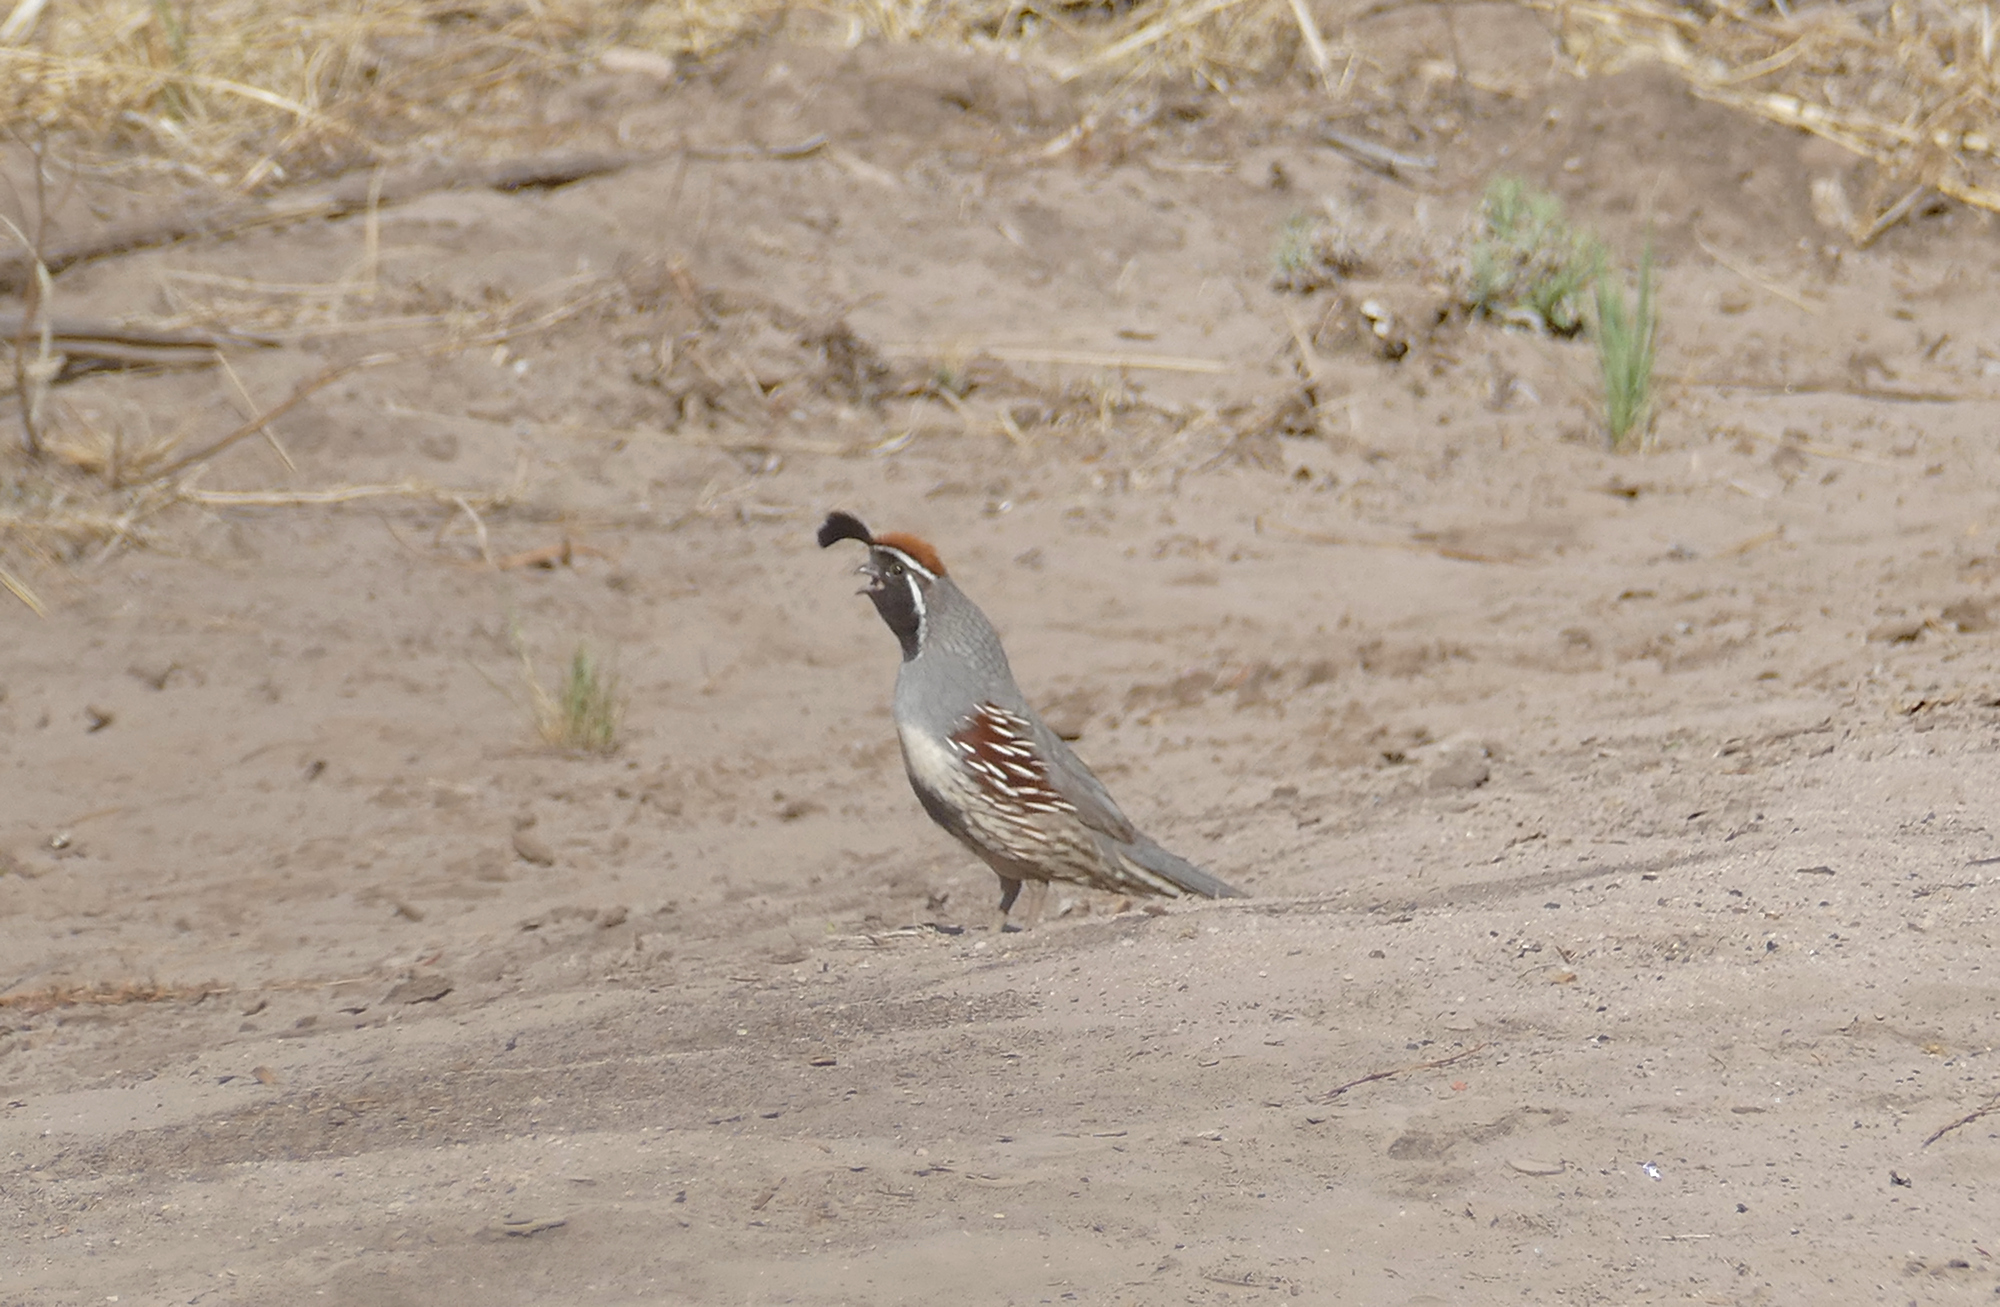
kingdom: Animalia
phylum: Chordata
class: Aves
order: Galliformes
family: Odontophoridae
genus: Callipepla
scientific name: Callipepla gambelii
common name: Gambel's quail
